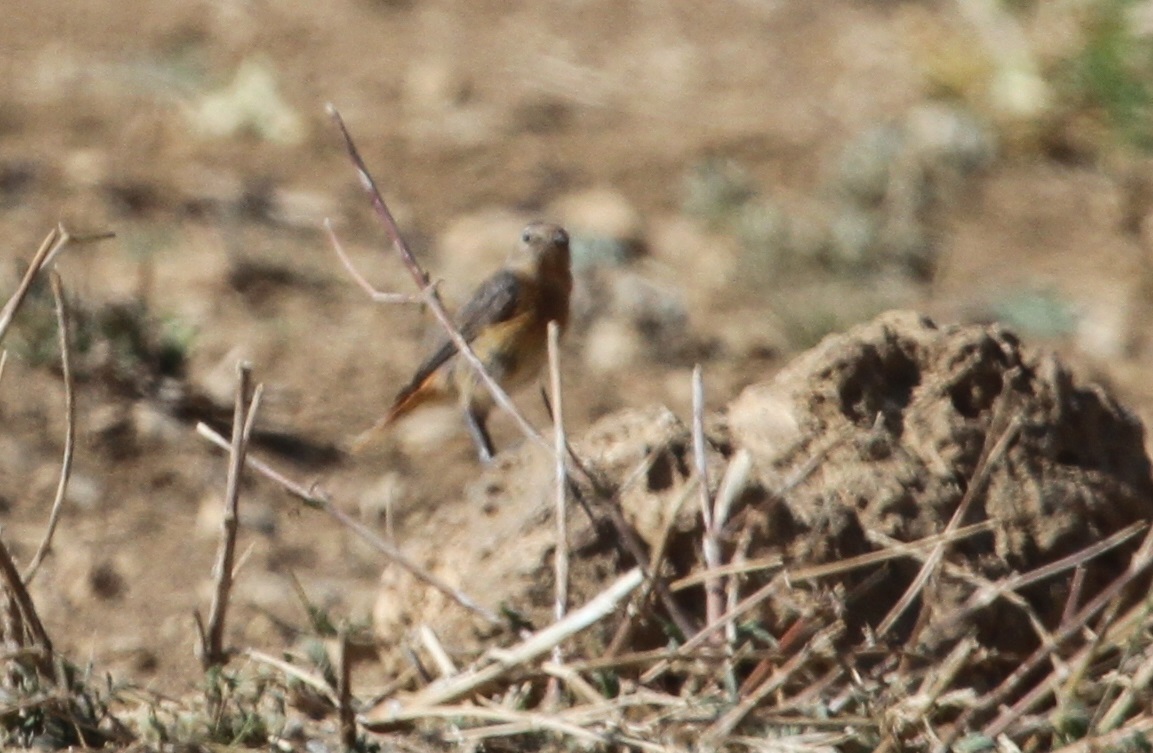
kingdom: Animalia
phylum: Chordata
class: Aves
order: Passeriformes
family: Muscicapidae
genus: Phoenicurus
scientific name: Phoenicurus moussieri
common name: Moussier's redstart
